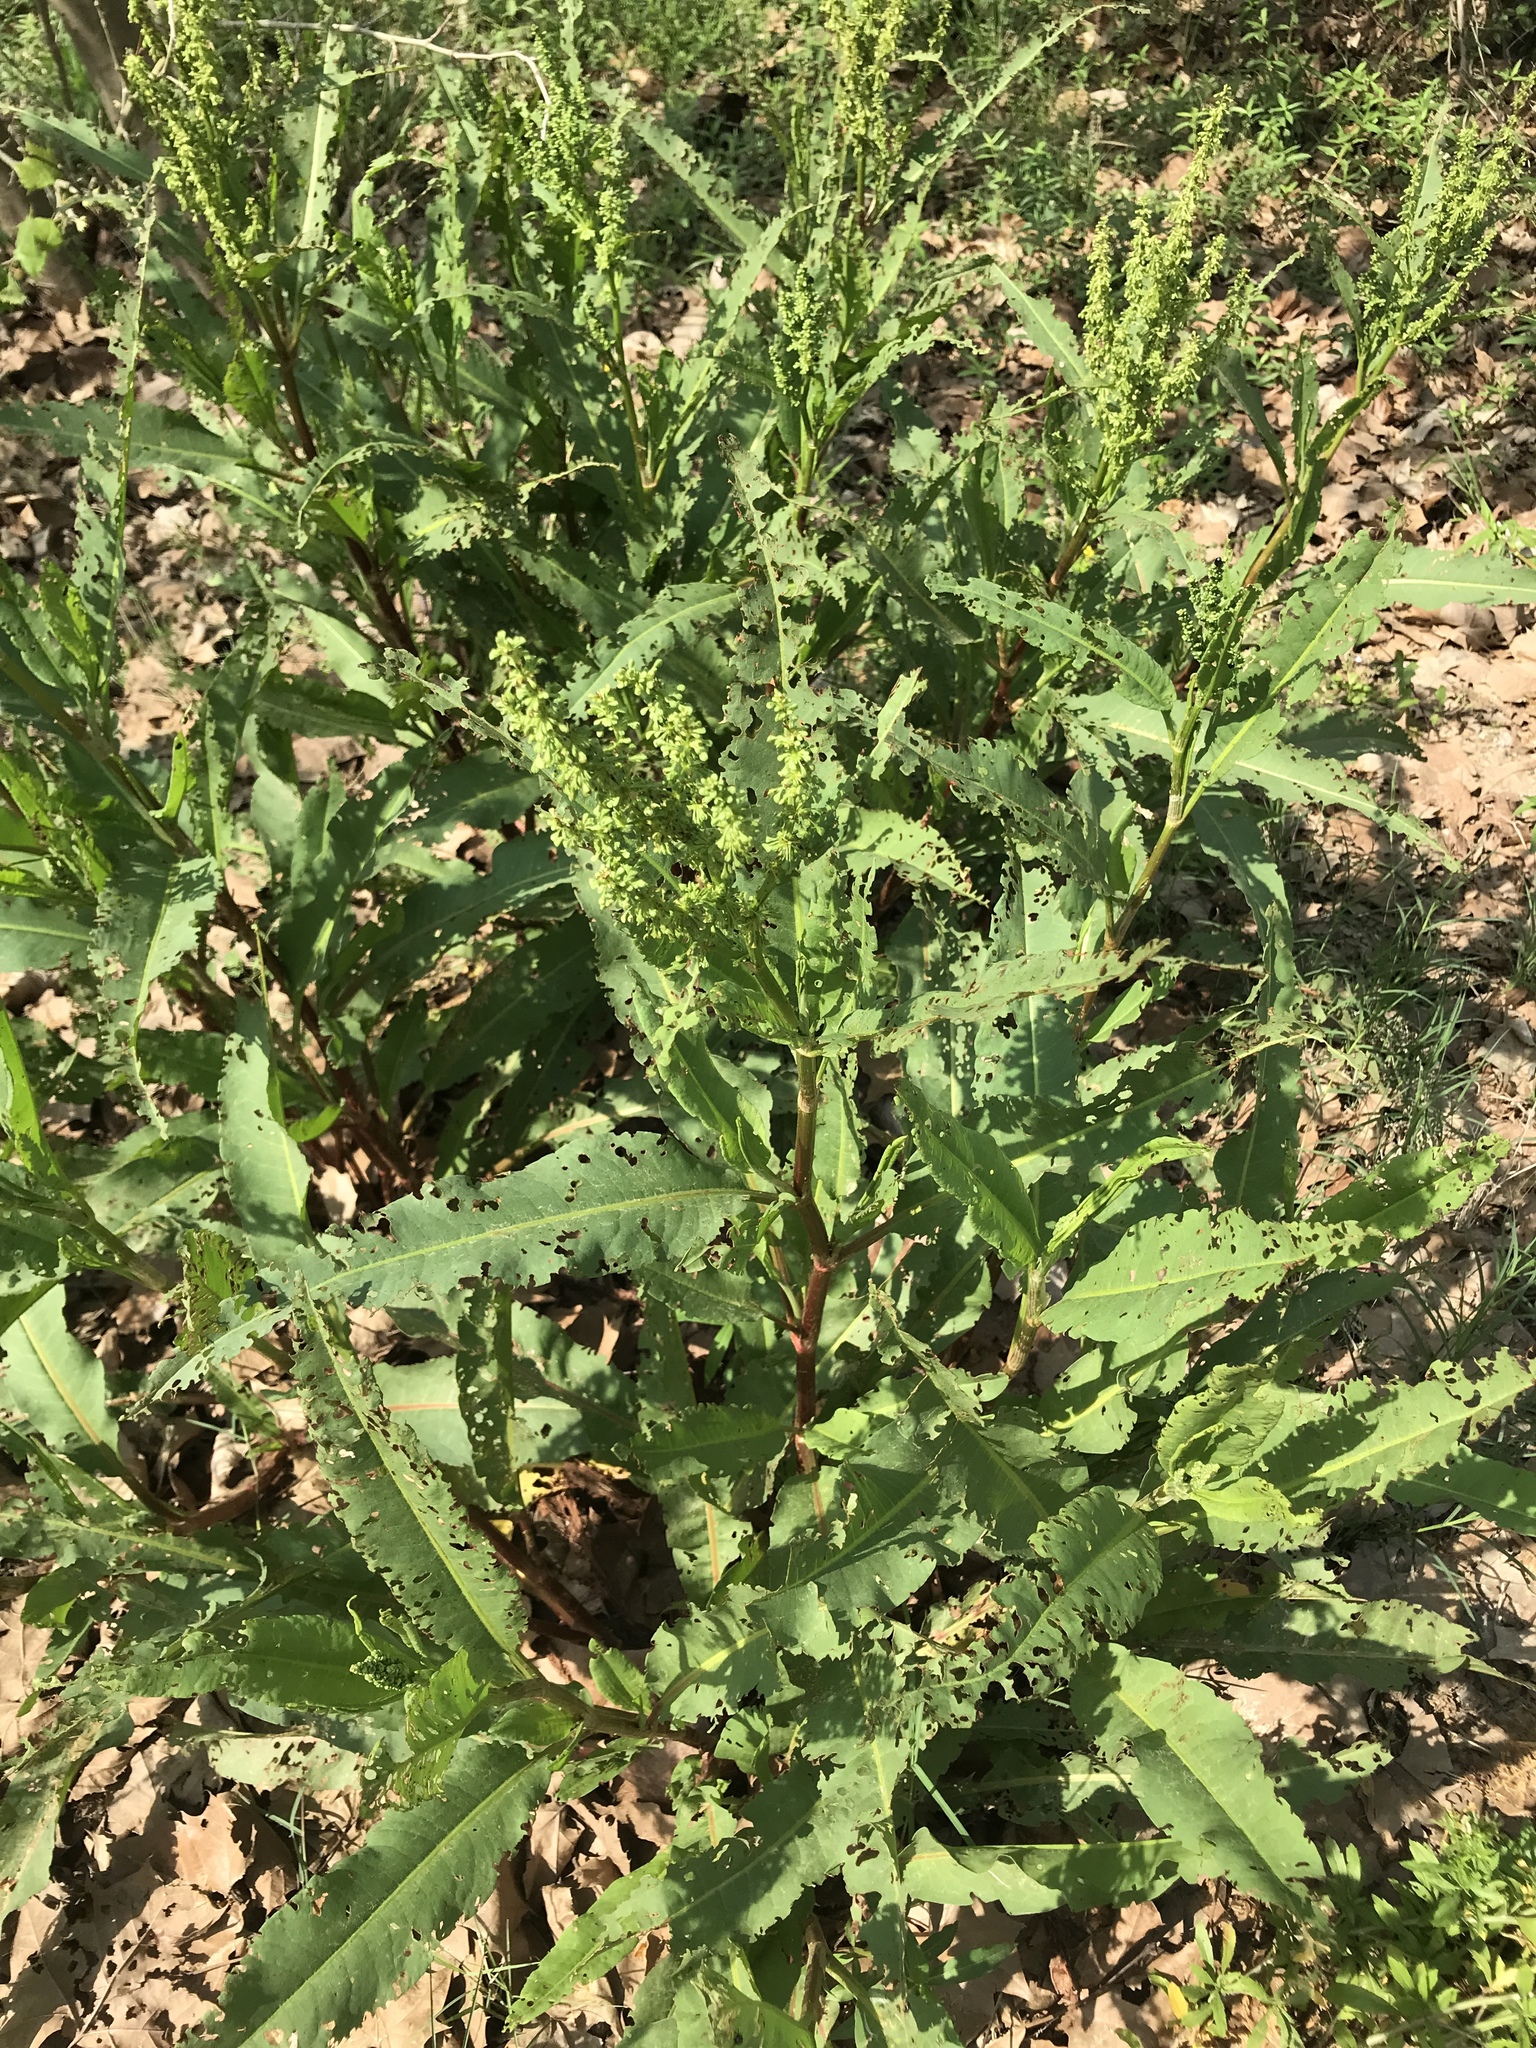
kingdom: Plantae
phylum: Tracheophyta
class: Magnoliopsida
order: Caryophyllales
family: Polygonaceae
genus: Rumex
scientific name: Rumex crispus
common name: Curled dock
